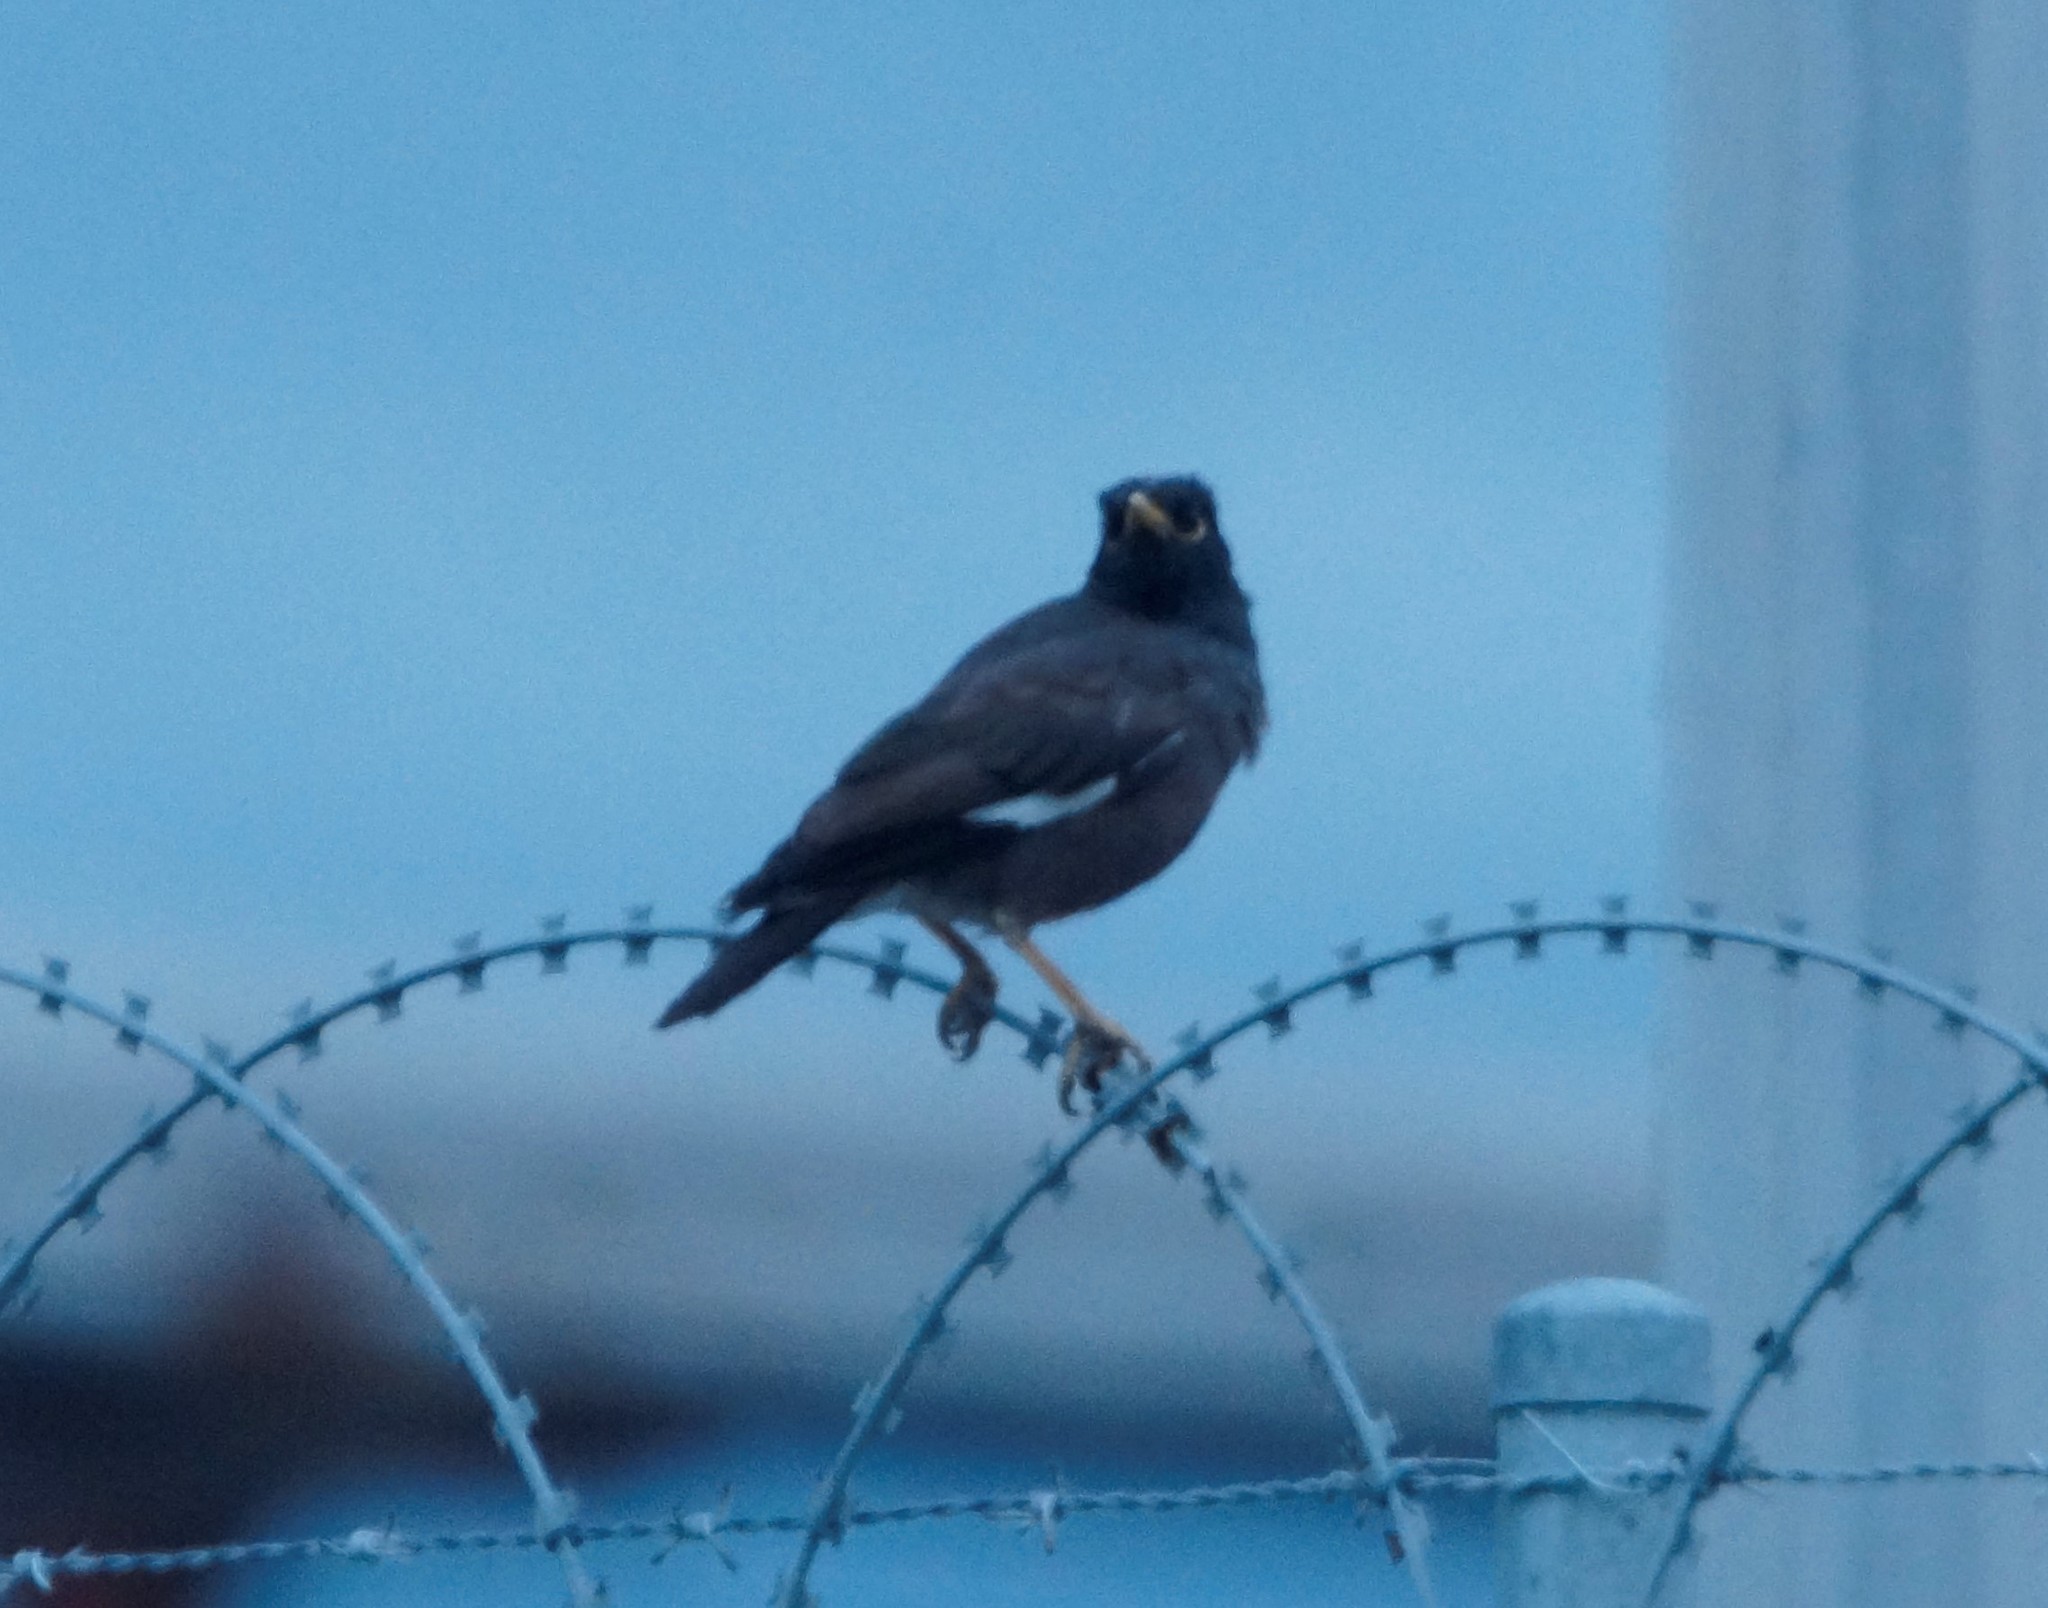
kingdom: Animalia
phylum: Chordata
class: Aves
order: Passeriformes
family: Sturnidae
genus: Acridotheres
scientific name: Acridotheres tristis
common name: Common myna
